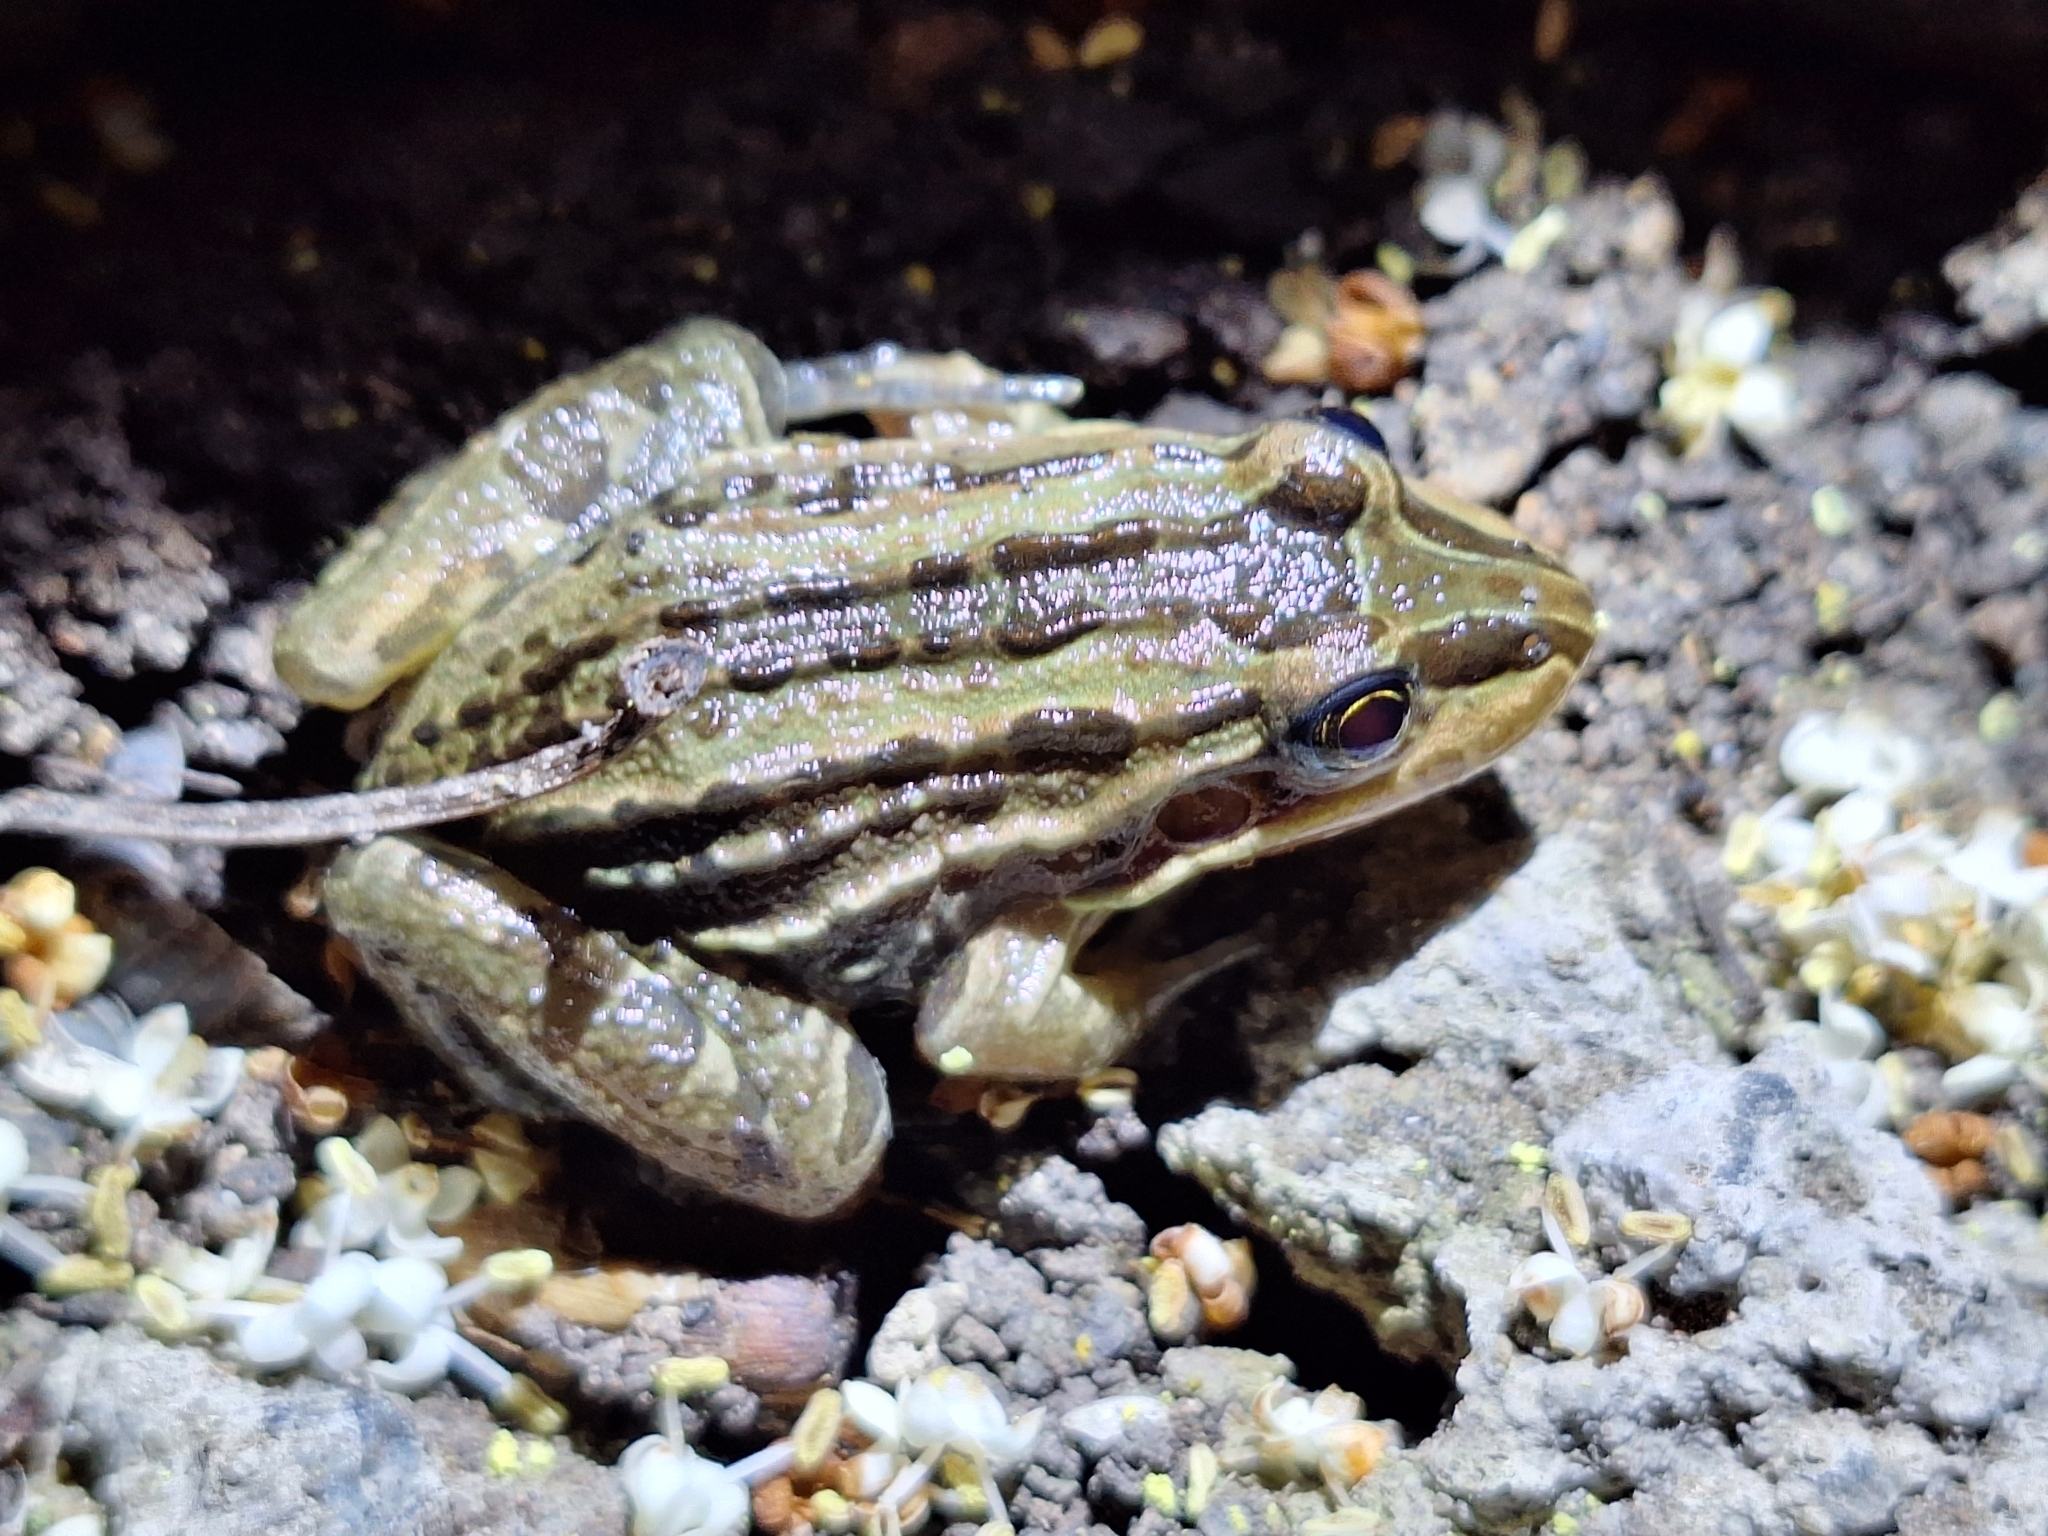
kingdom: Animalia
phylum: Chordata
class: Amphibia
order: Anura
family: Leptodactylidae
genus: Leptodactylus
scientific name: Leptodactylus luctator
